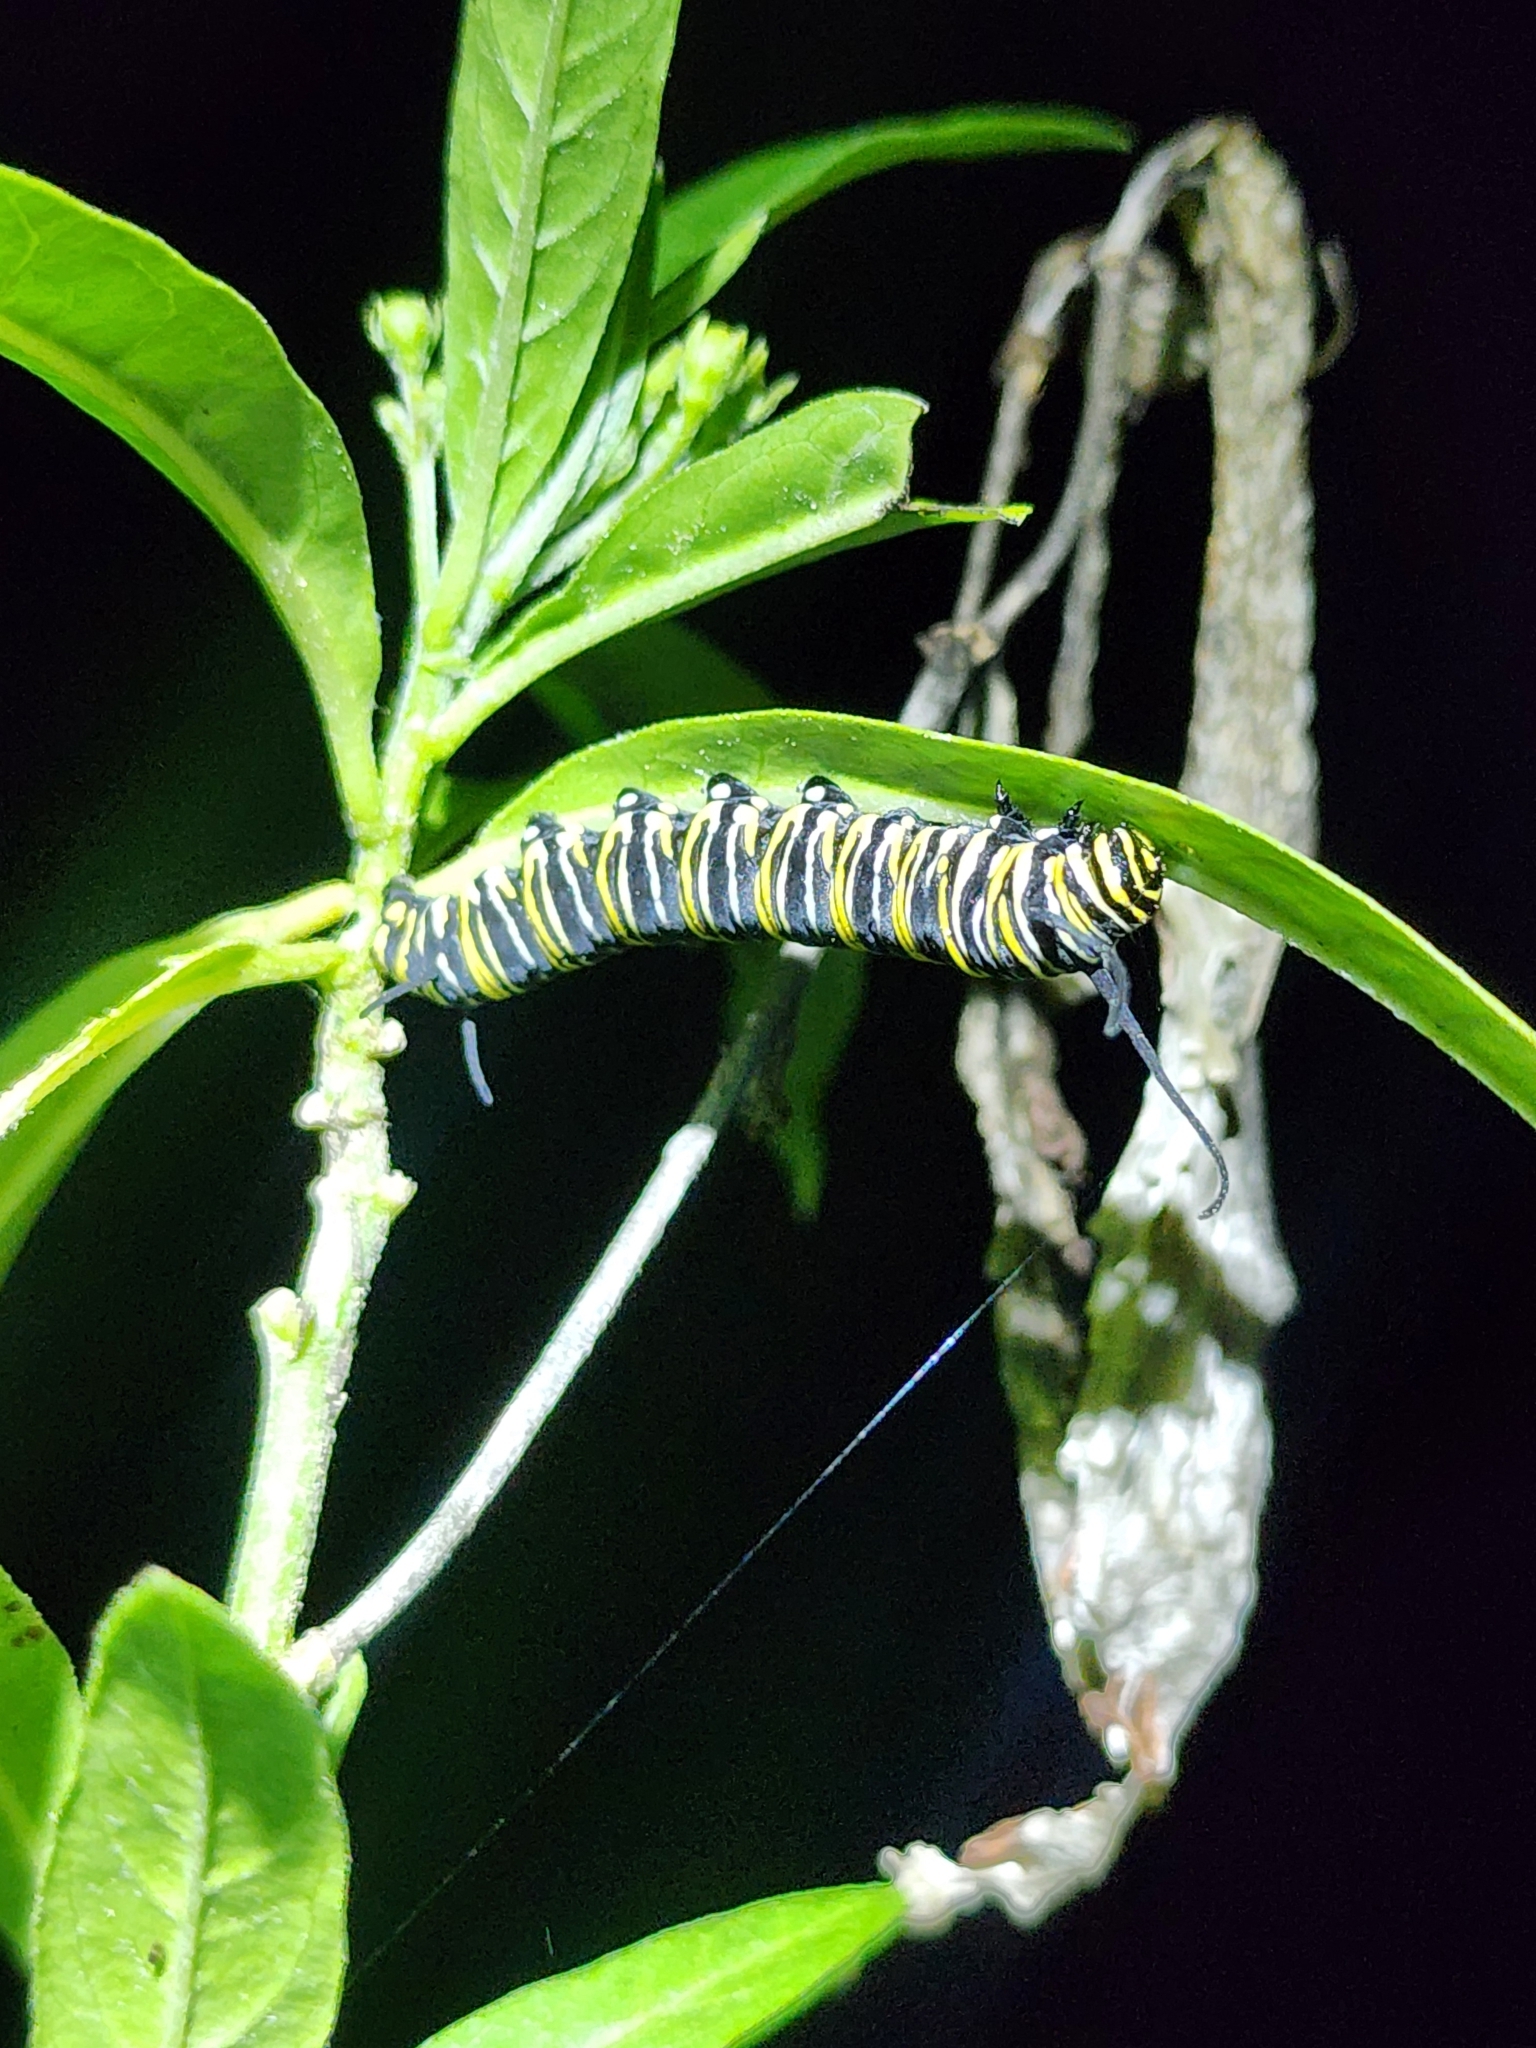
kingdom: Animalia
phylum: Arthropoda
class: Insecta
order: Lepidoptera
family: Nymphalidae
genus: Danaus
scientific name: Danaus plexippus
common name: Monarch
